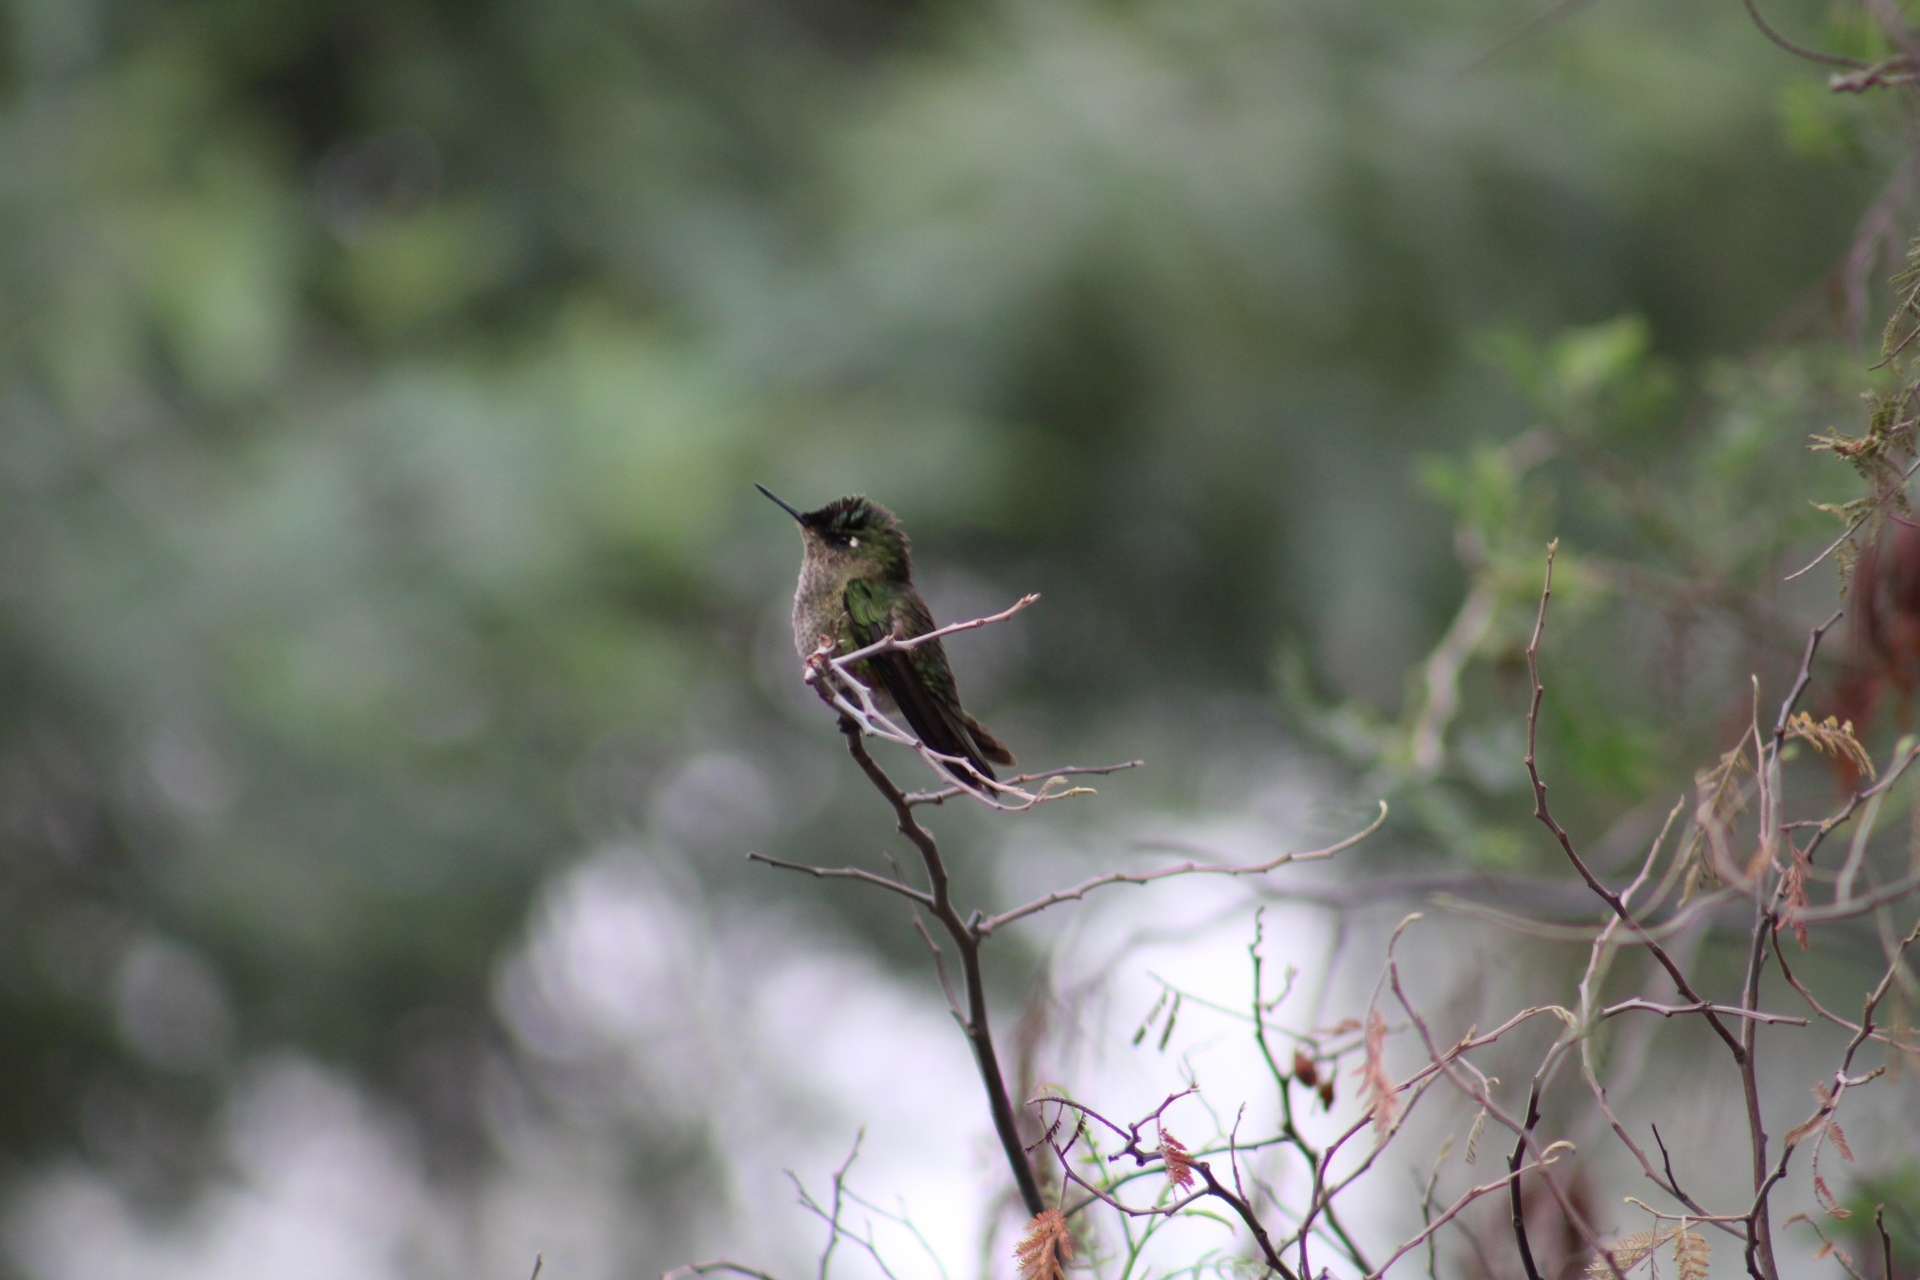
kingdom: Animalia
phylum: Chordata
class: Aves
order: Apodiformes
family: Trochilidae
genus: Sephanoides
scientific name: Sephanoides sephaniodes
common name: Green-backed firecrown
